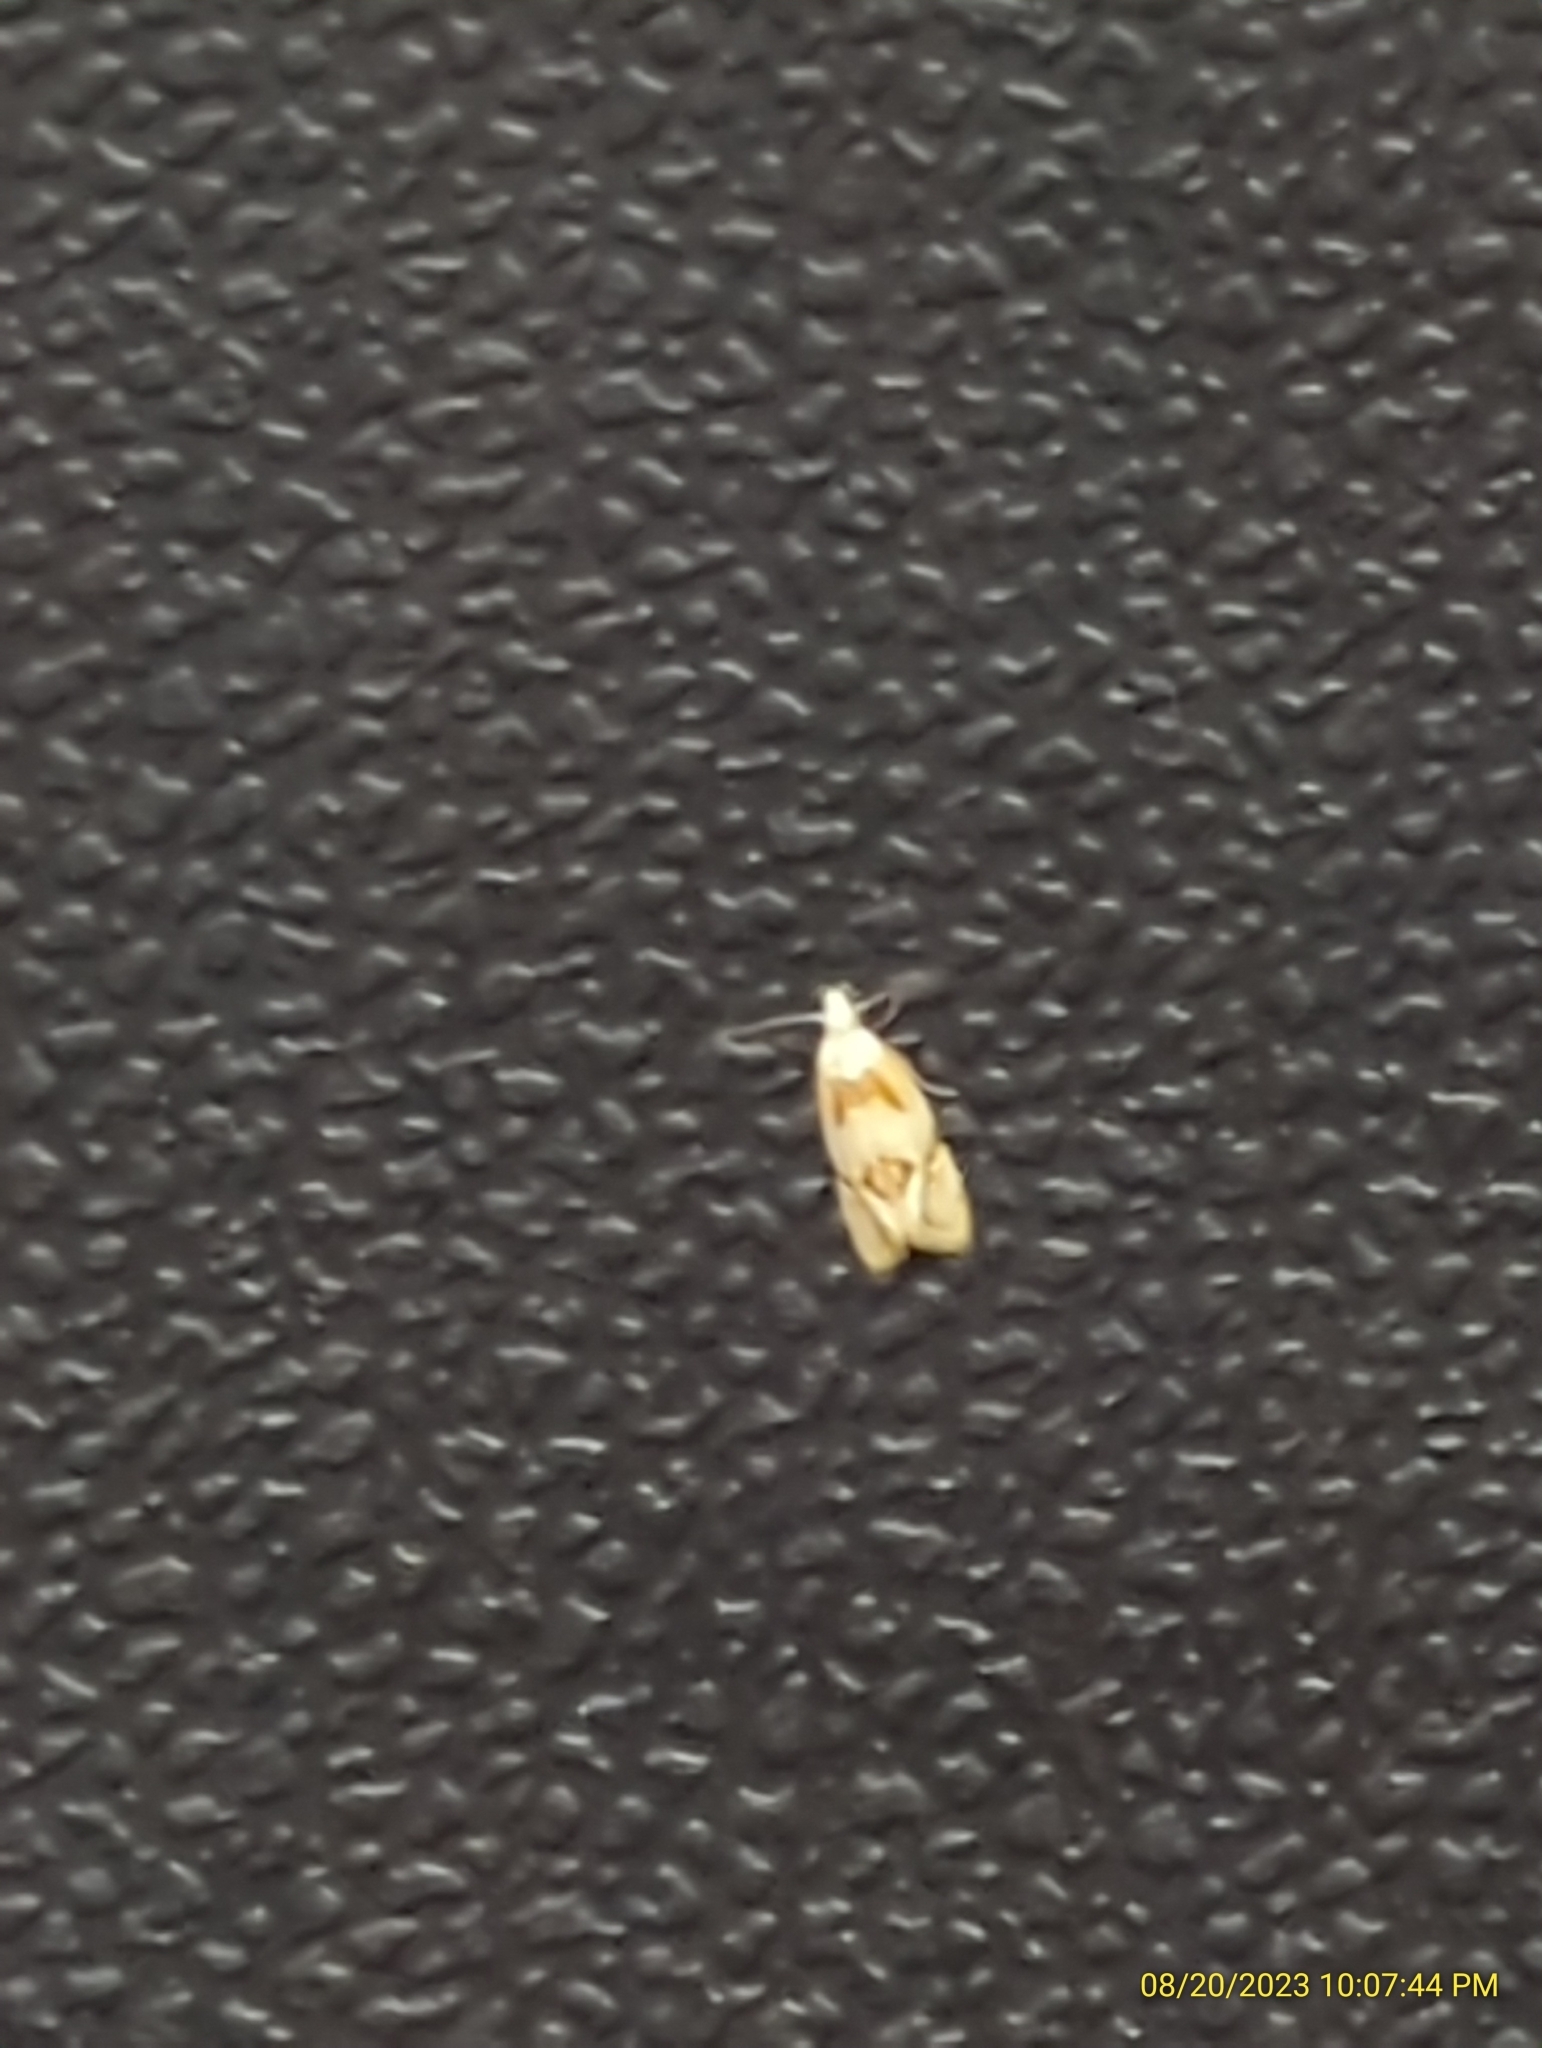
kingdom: Animalia
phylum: Arthropoda
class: Insecta
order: Lepidoptera
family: Tortricidae
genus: Aethes
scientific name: Aethes seriatana
